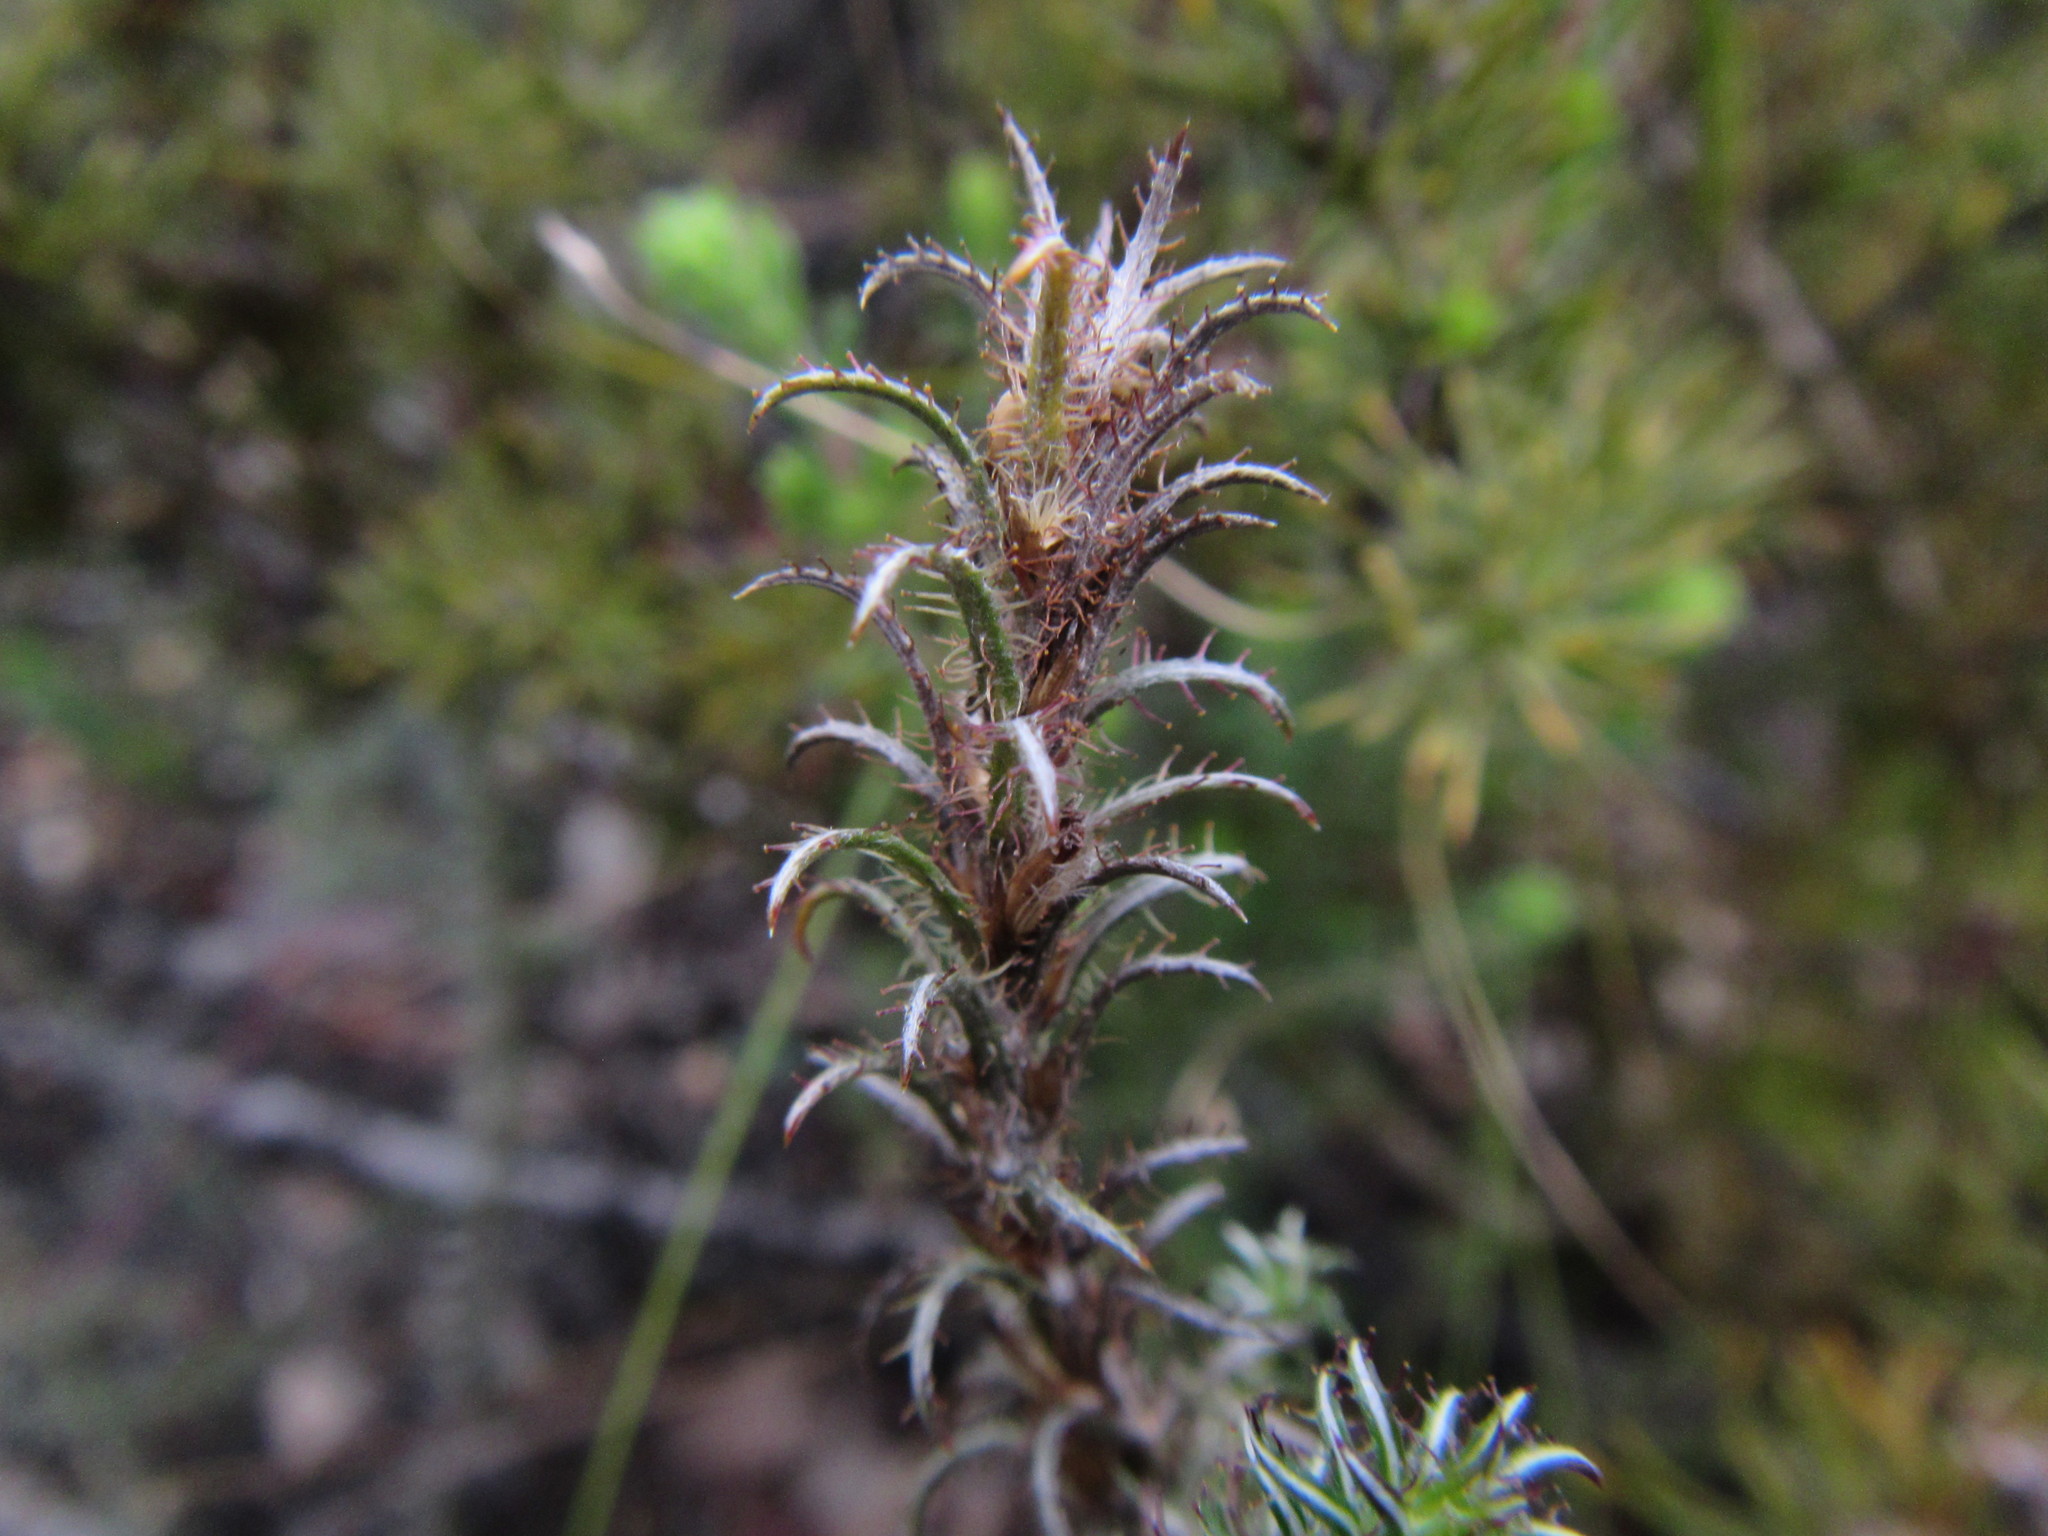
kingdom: Plantae
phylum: Tracheophyta
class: Magnoliopsida
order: Asterales
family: Asteraceae
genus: Myrovernix
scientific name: Myrovernix glandulosus
